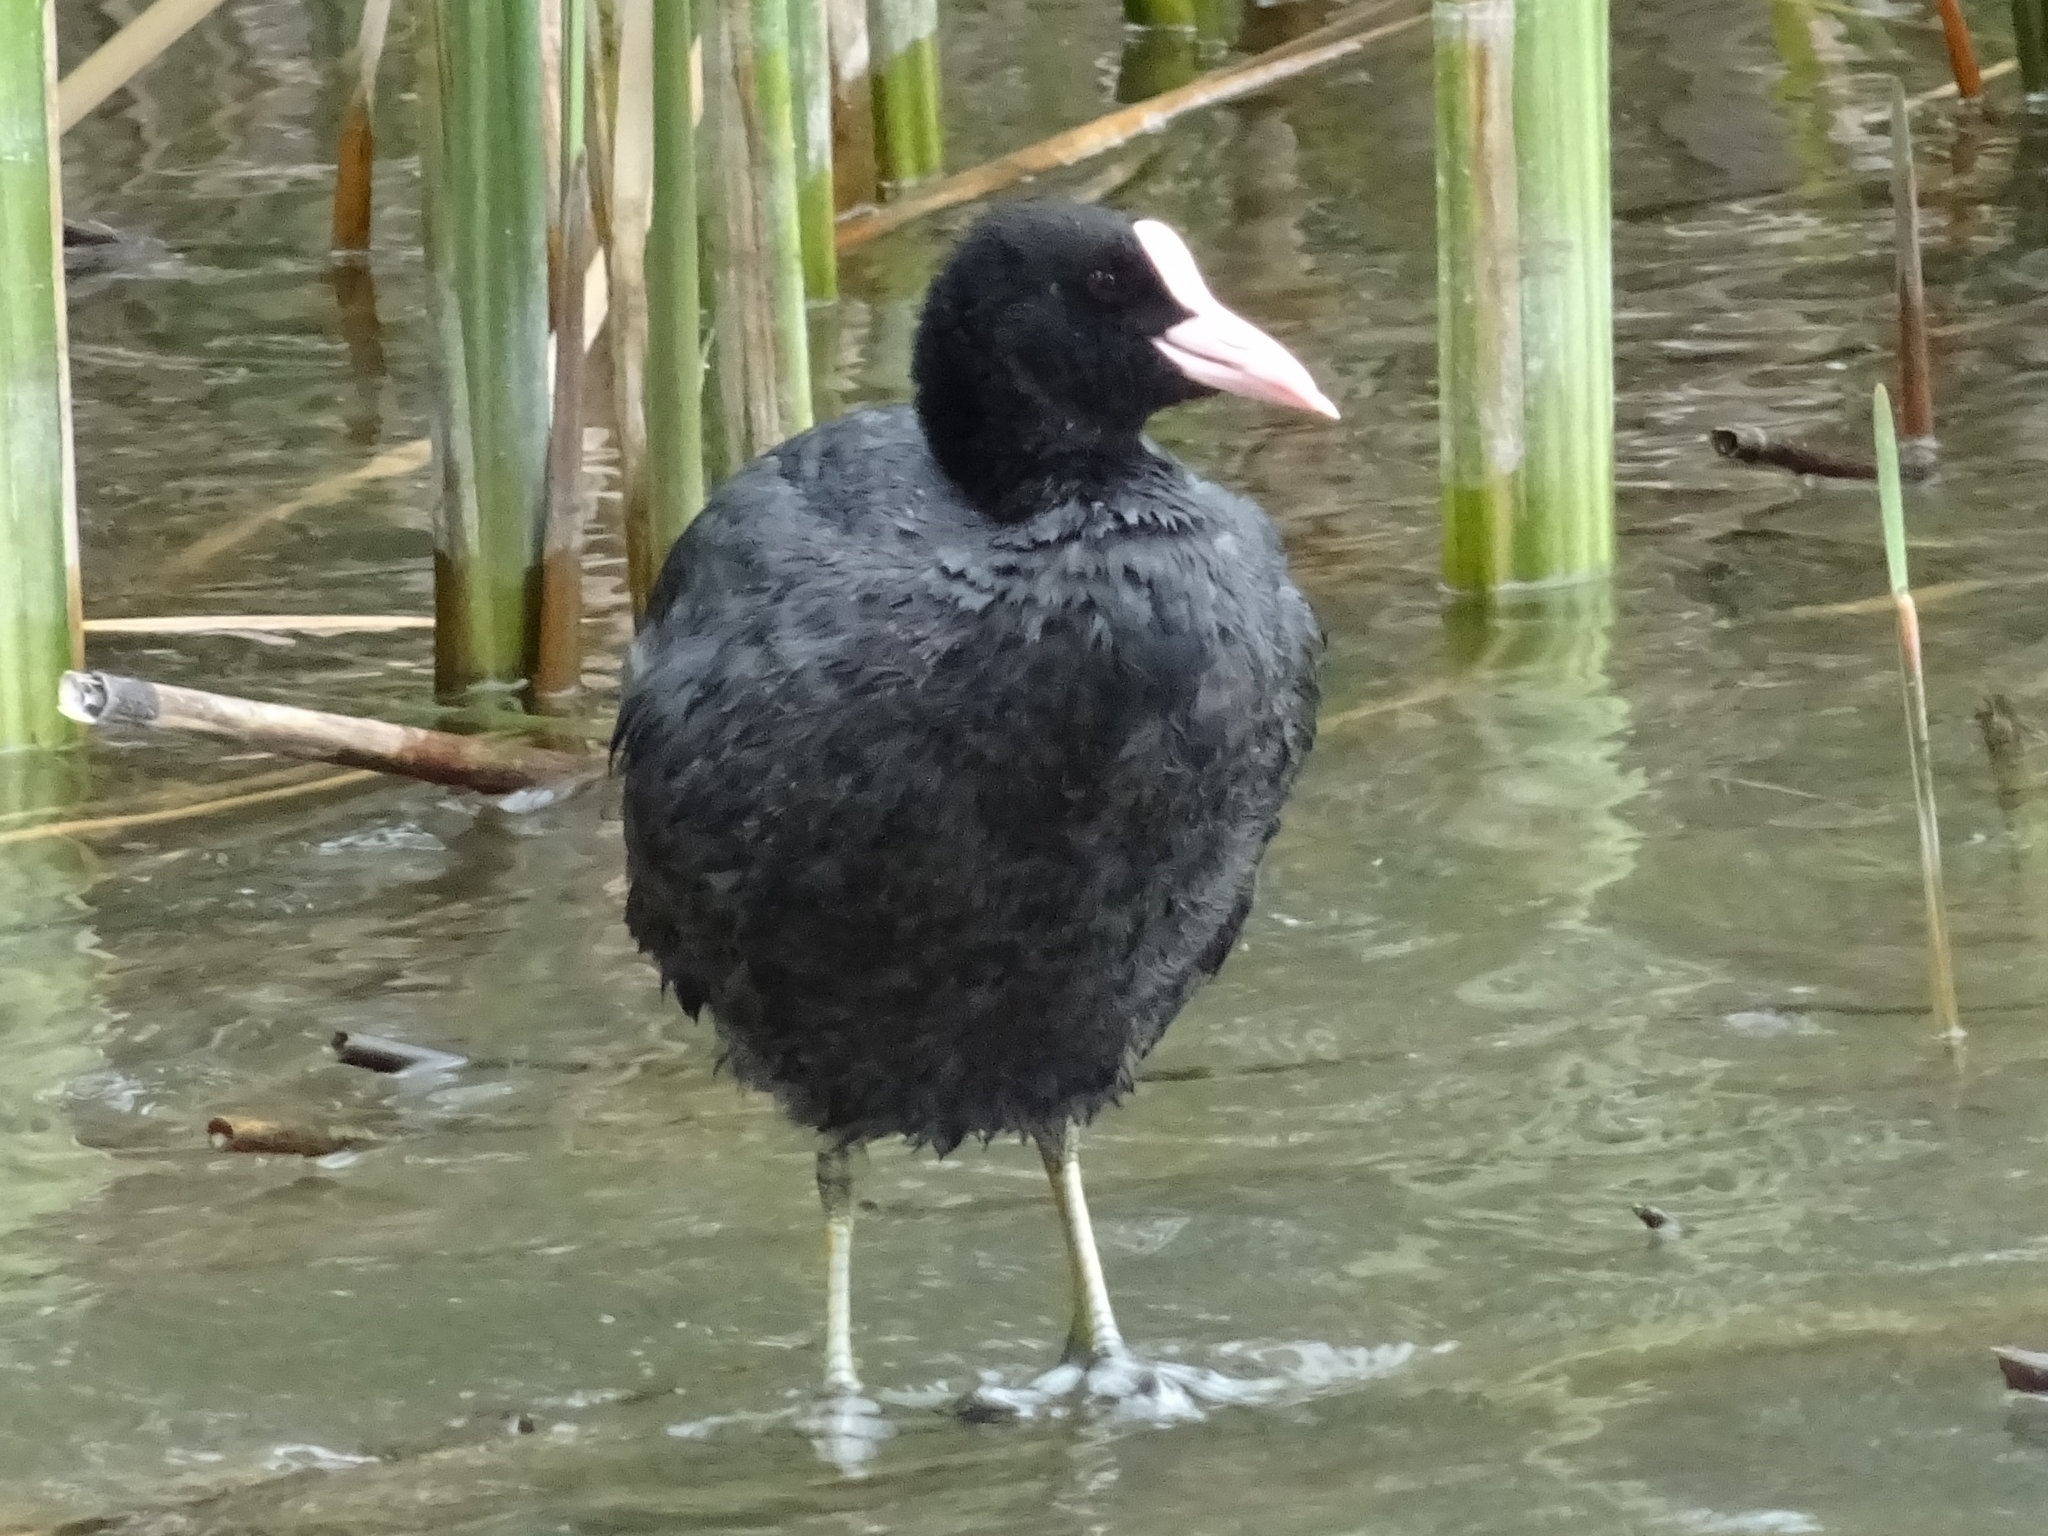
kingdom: Animalia
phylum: Chordata
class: Aves
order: Gruiformes
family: Rallidae
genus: Fulica
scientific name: Fulica atra
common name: Eurasian coot
